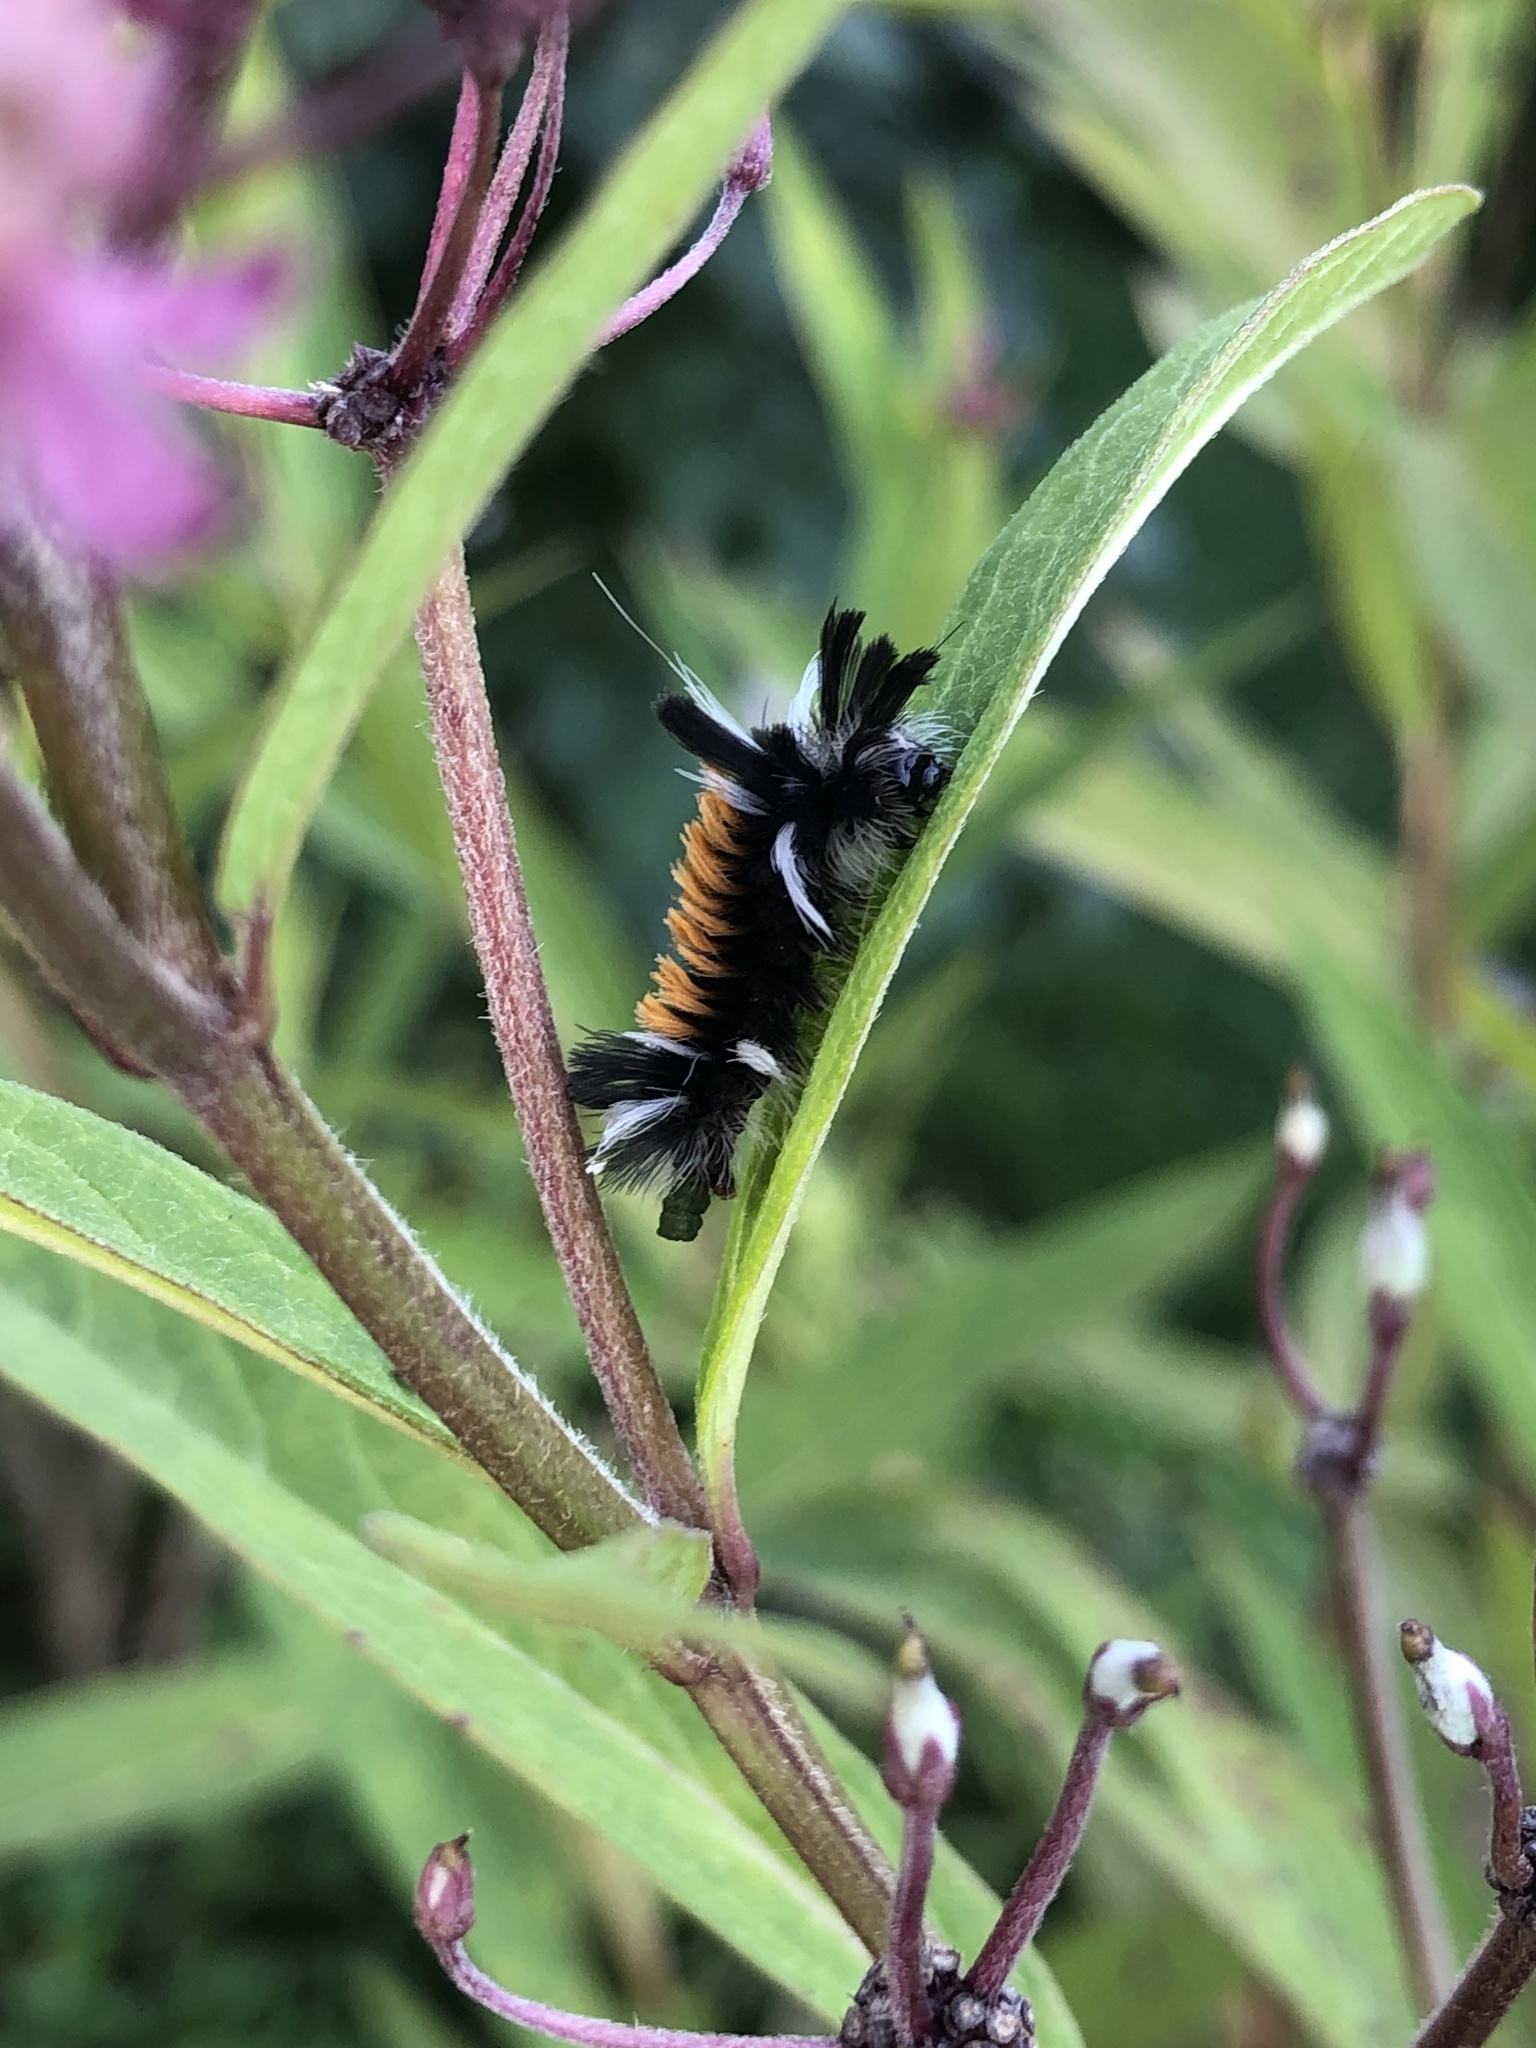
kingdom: Animalia
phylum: Arthropoda
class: Insecta
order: Lepidoptera
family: Erebidae
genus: Euchaetes
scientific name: Euchaetes egle
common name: Milkweed tussock moth
